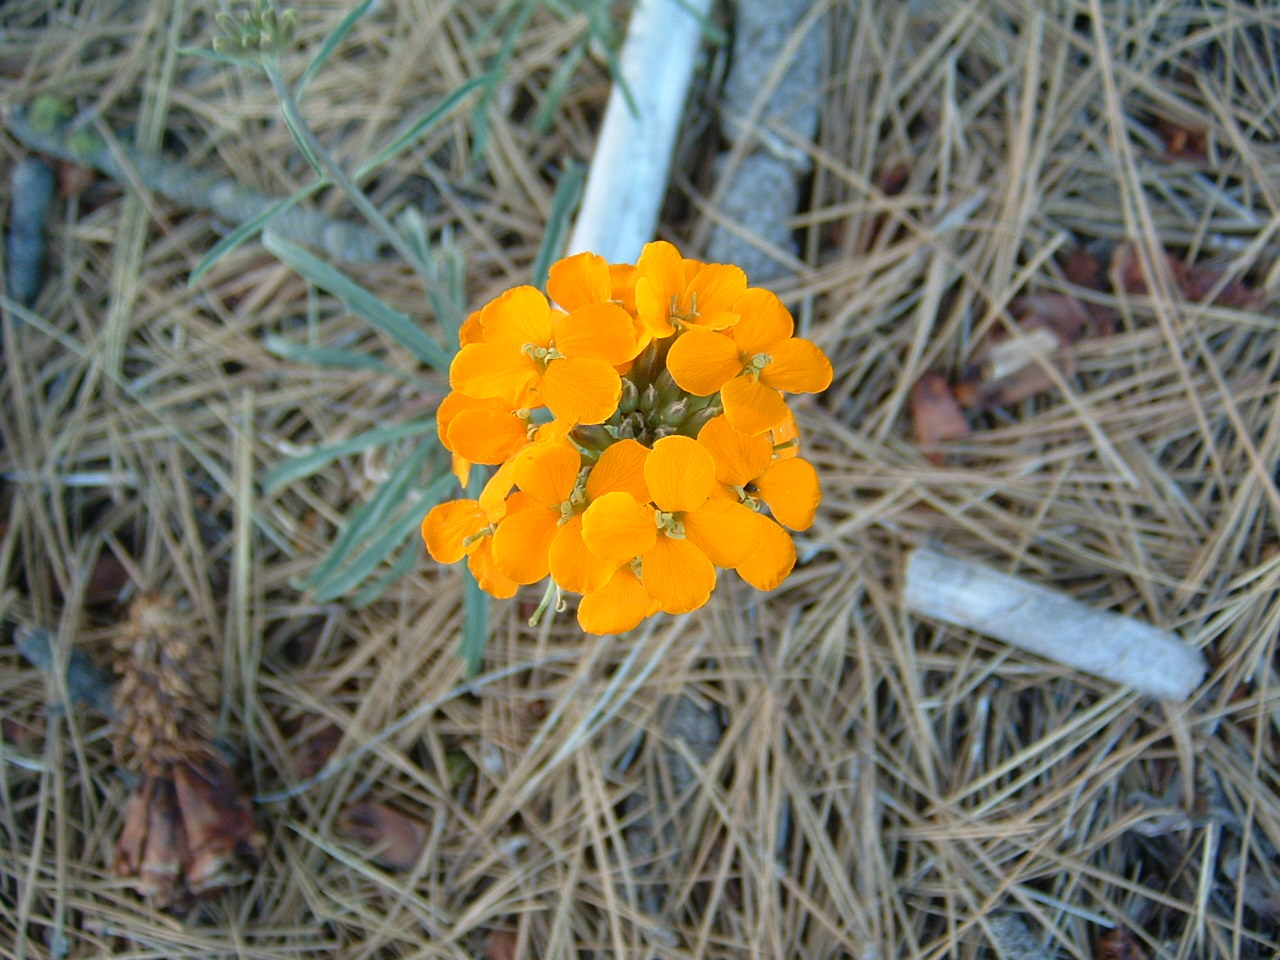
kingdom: Plantae
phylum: Tracheophyta
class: Magnoliopsida
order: Brassicales
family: Brassicaceae
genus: Erysimum
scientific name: Erysimum capitatum
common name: Western wallflower
